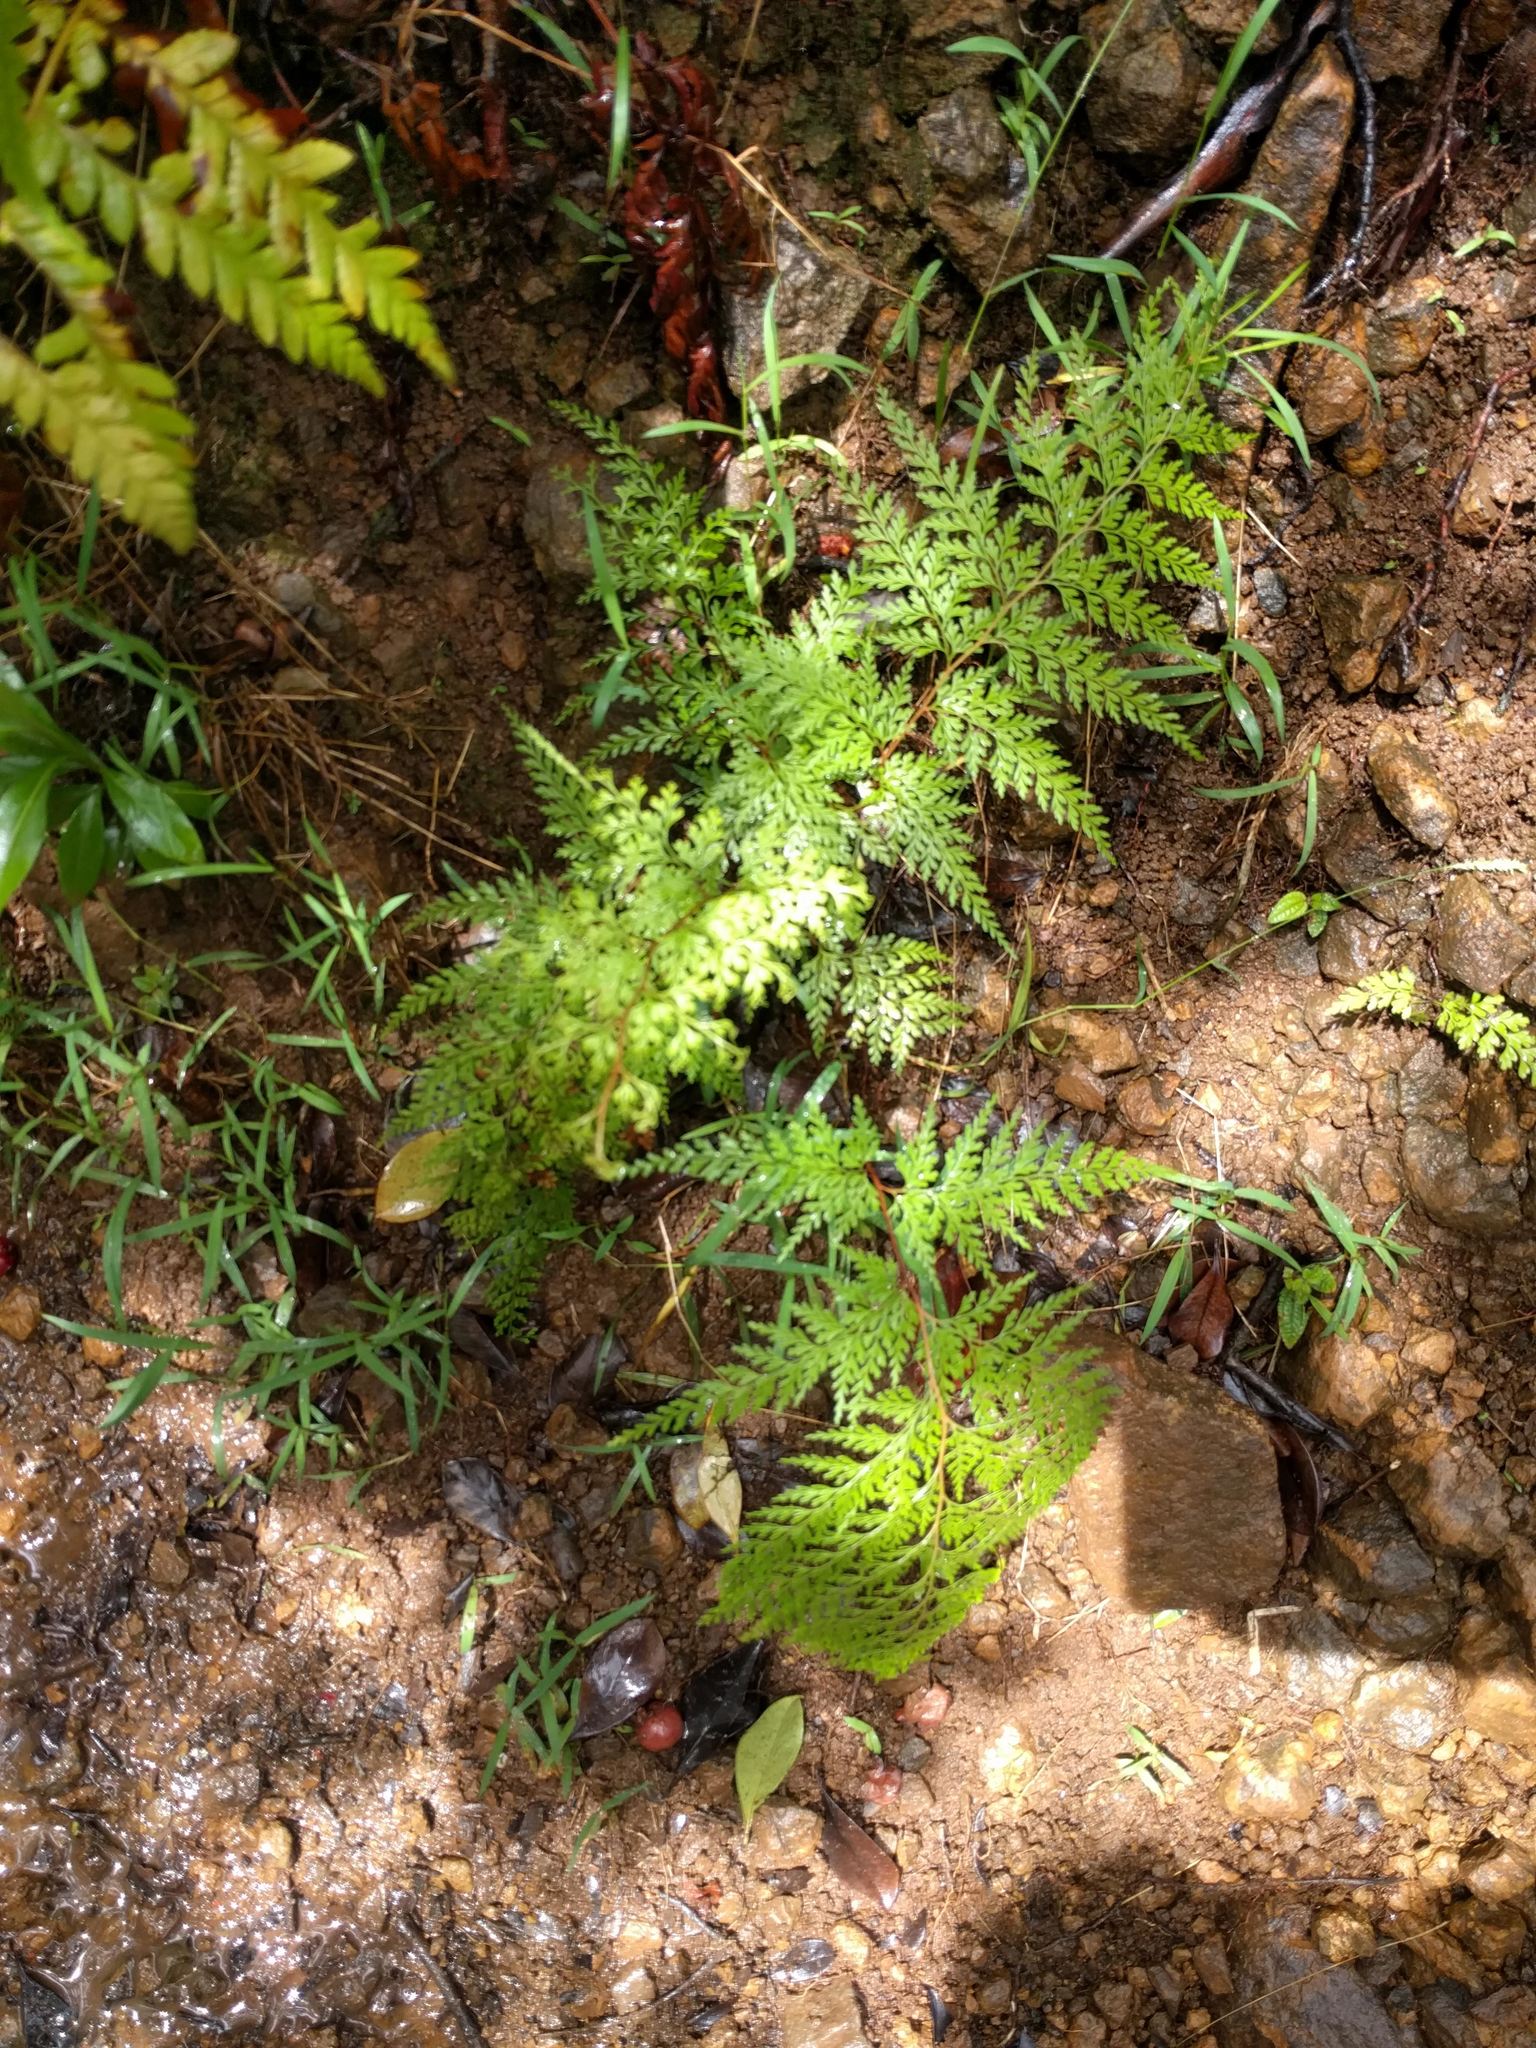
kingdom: Plantae
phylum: Tracheophyta
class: Polypodiopsida
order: Polypodiales
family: Lindsaeaceae
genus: Odontosoria
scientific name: Odontosoria chinensis
